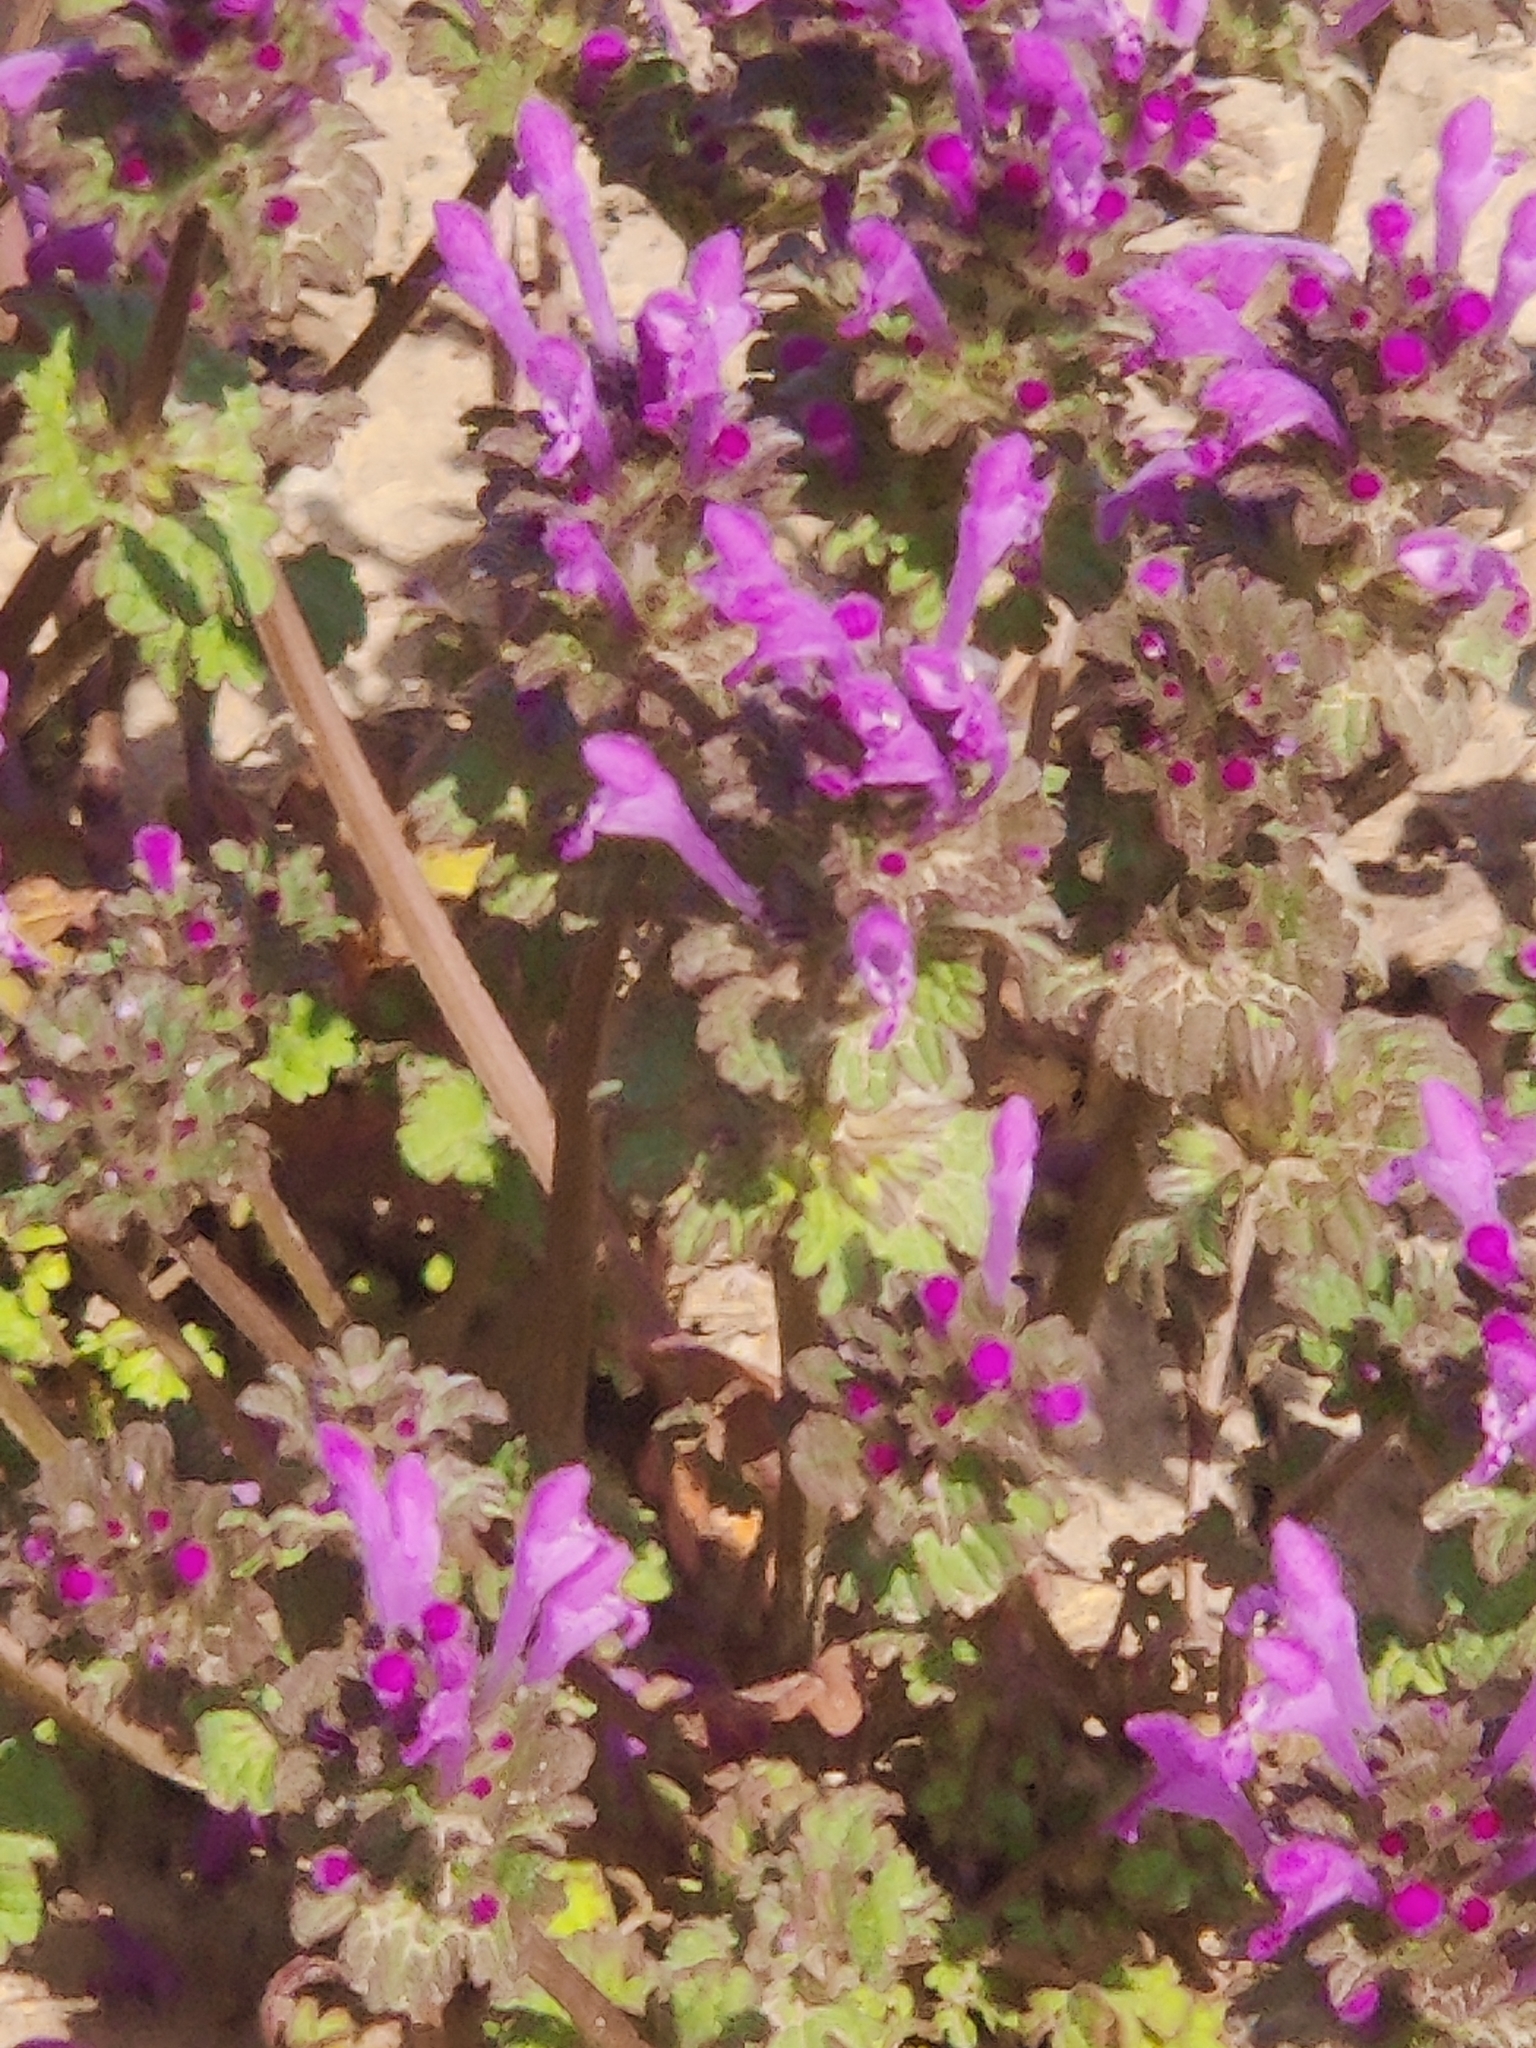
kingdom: Plantae
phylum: Tracheophyta
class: Magnoliopsida
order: Lamiales
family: Lamiaceae
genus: Lamium
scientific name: Lamium amplexicaule
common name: Henbit dead-nettle
